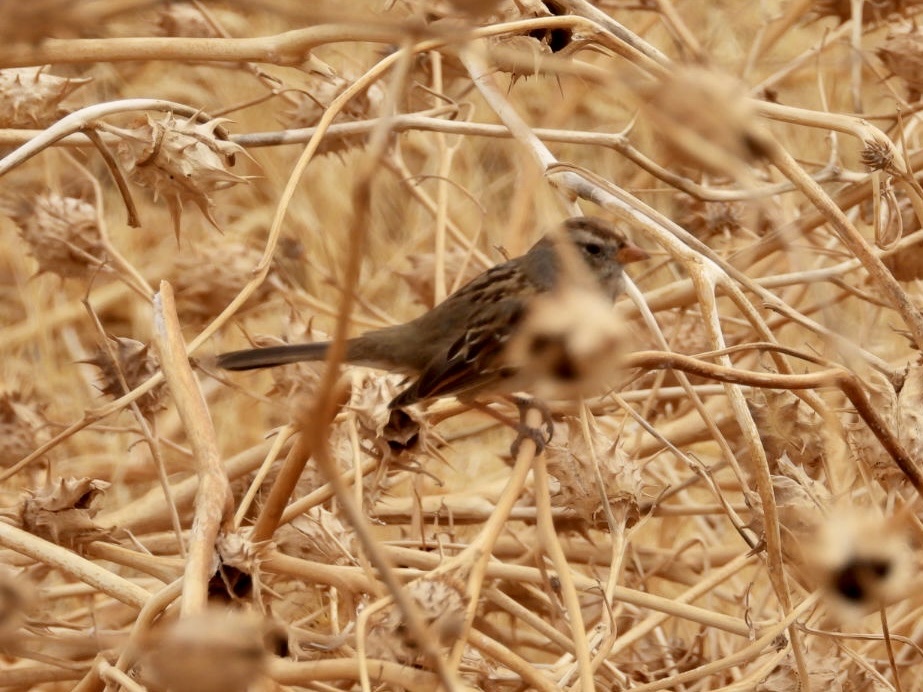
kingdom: Animalia
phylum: Chordata
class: Aves
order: Passeriformes
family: Passerellidae
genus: Zonotrichia
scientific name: Zonotrichia leucophrys
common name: White-crowned sparrow
